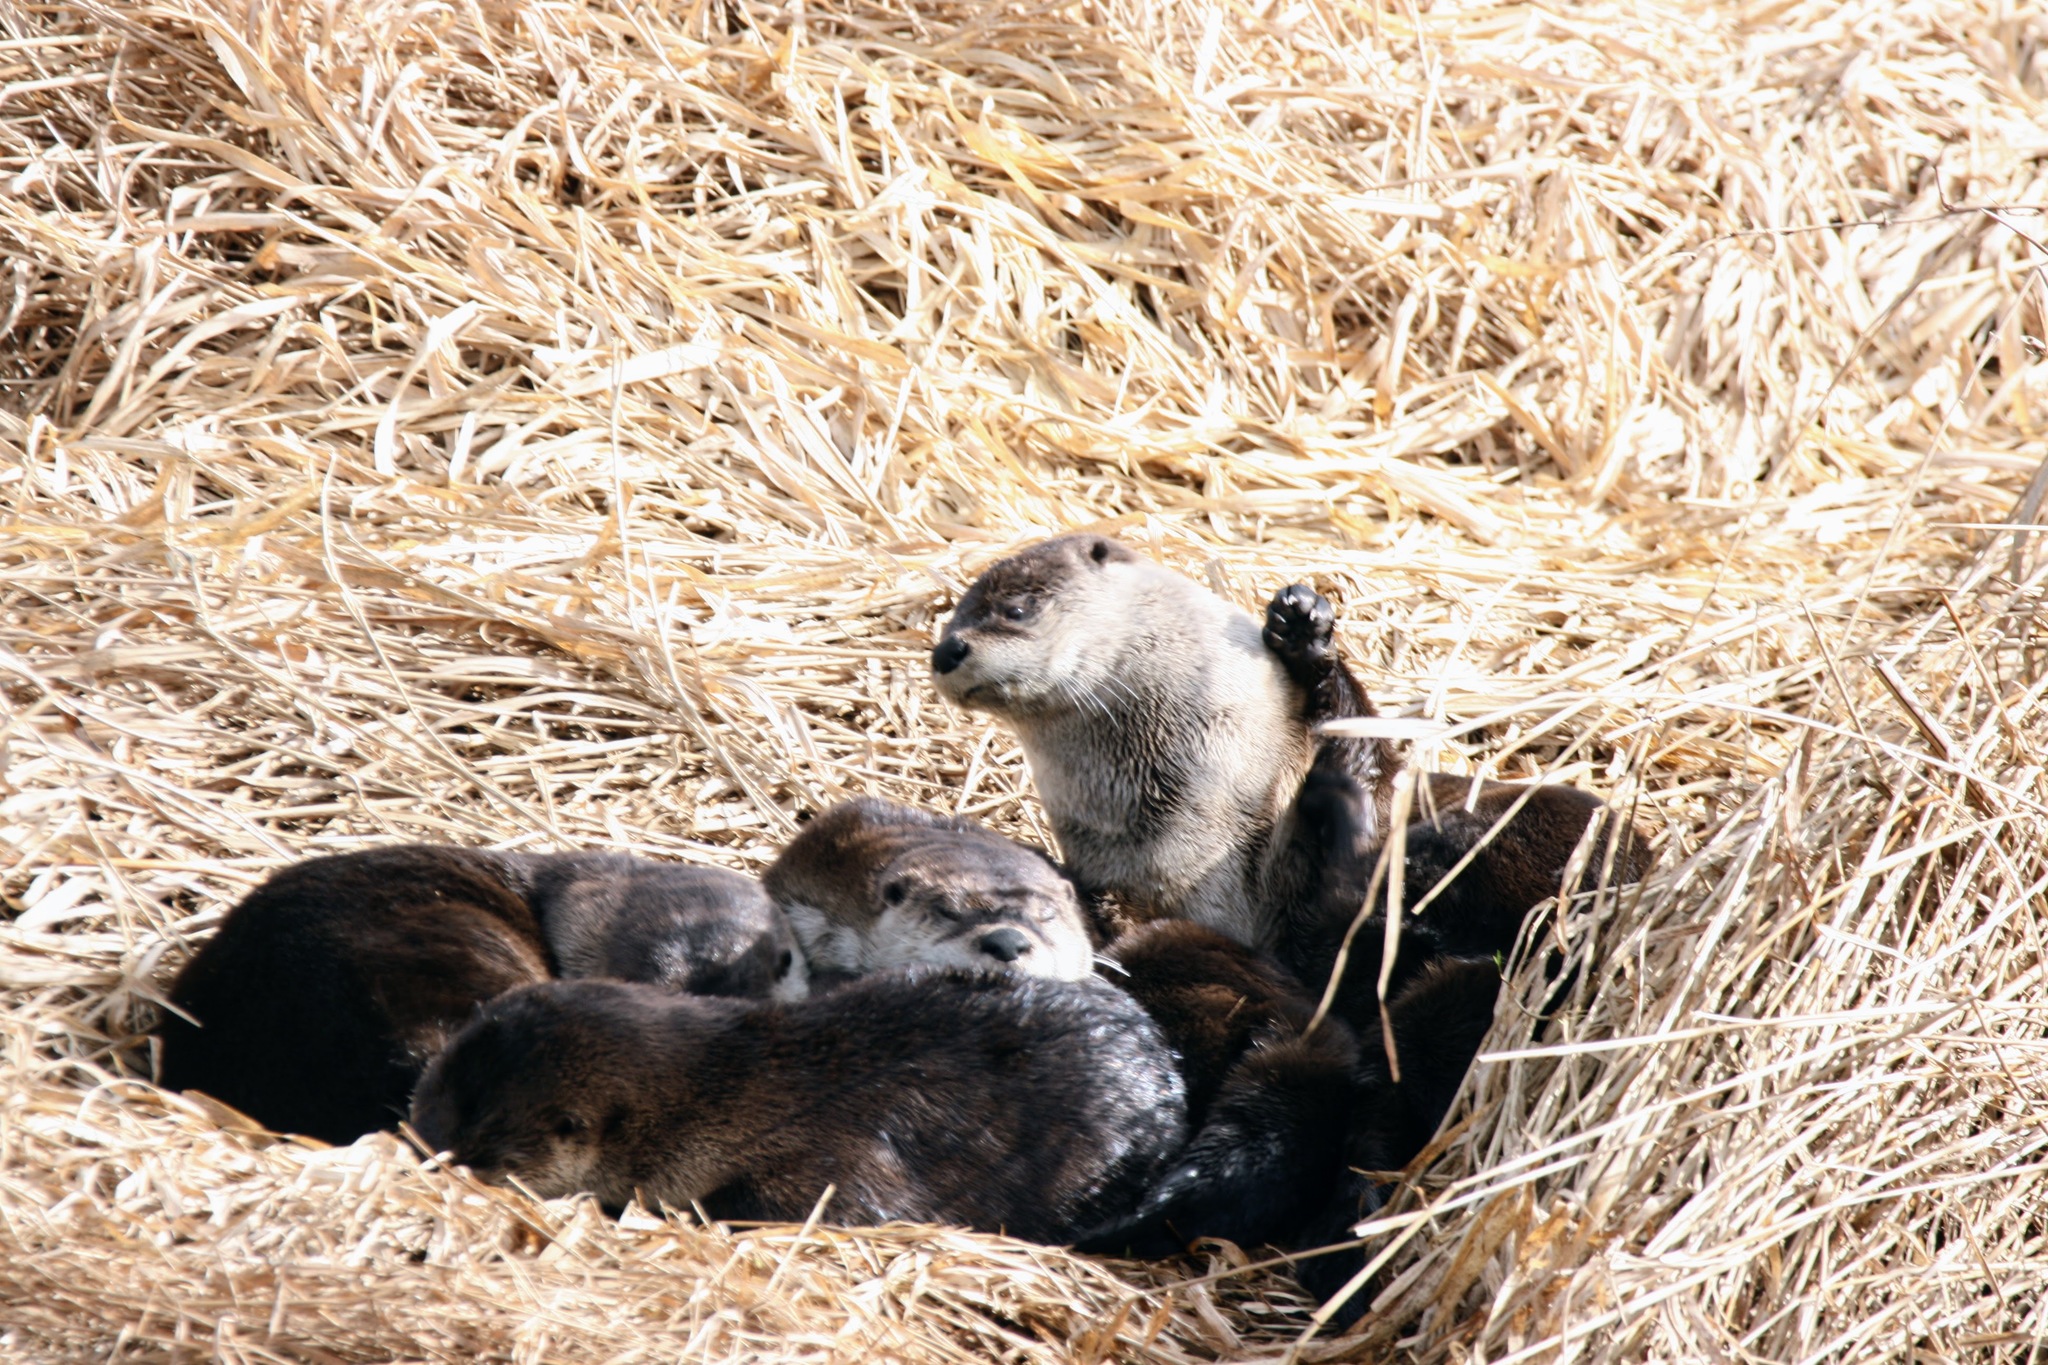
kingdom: Animalia
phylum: Chordata
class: Mammalia
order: Carnivora
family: Mustelidae
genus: Lontra
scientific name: Lontra canadensis
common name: North american river otter
